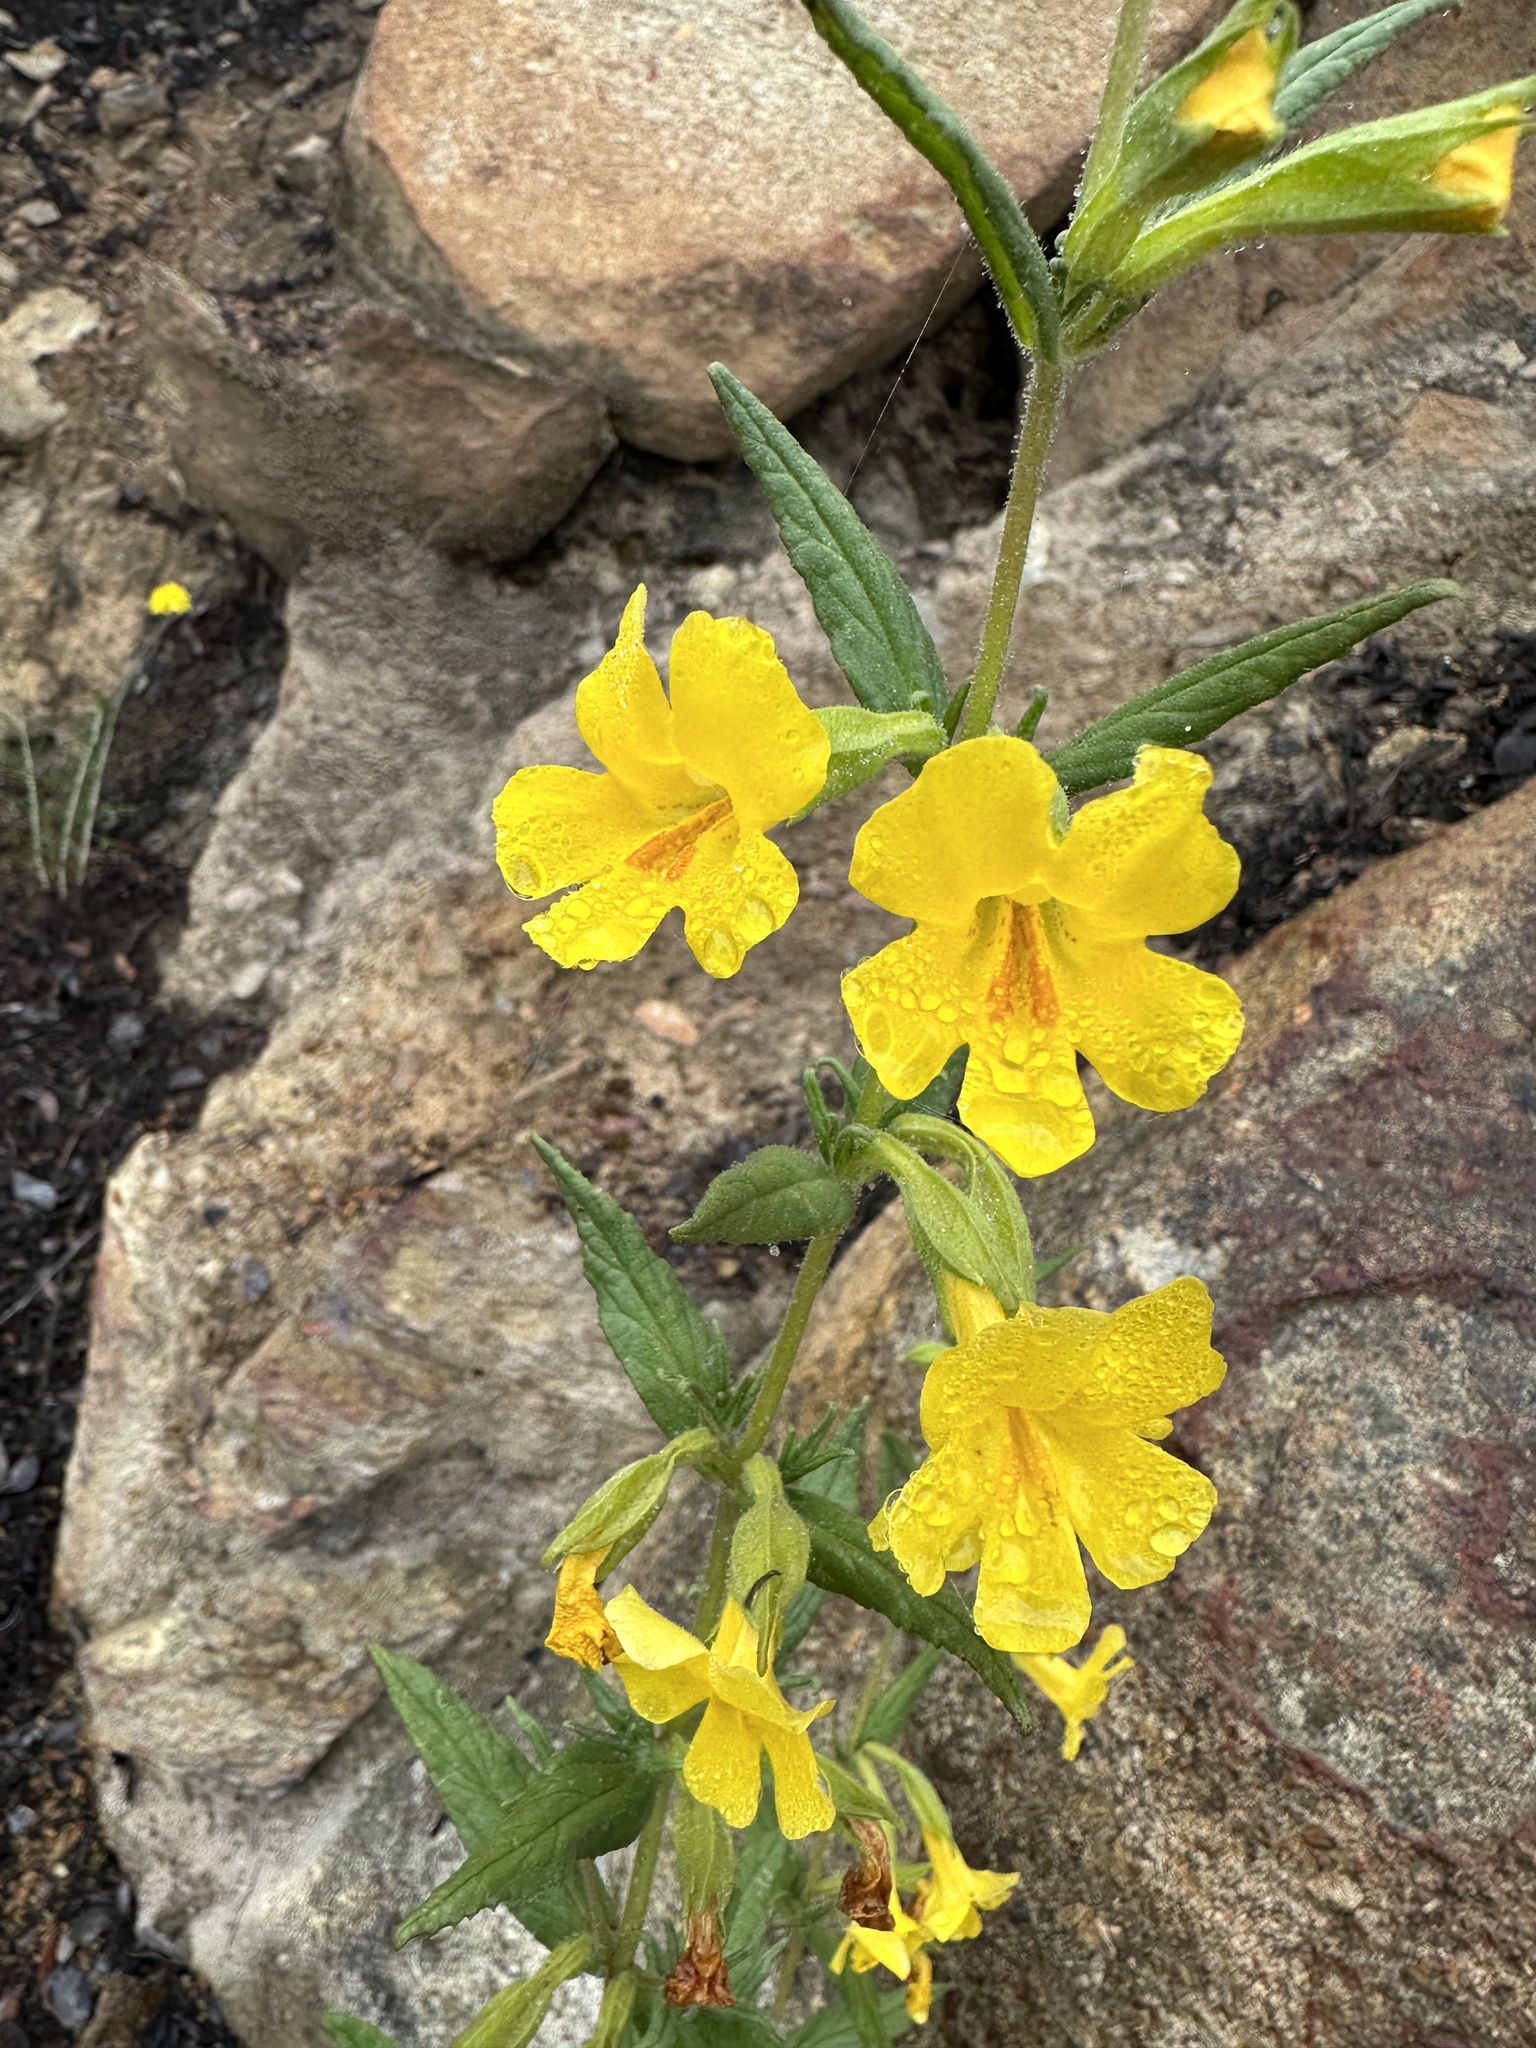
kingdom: Plantae
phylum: Tracheophyta
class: Magnoliopsida
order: Lamiales
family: Phrymaceae
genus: Diplacus
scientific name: Diplacus clevelandii
